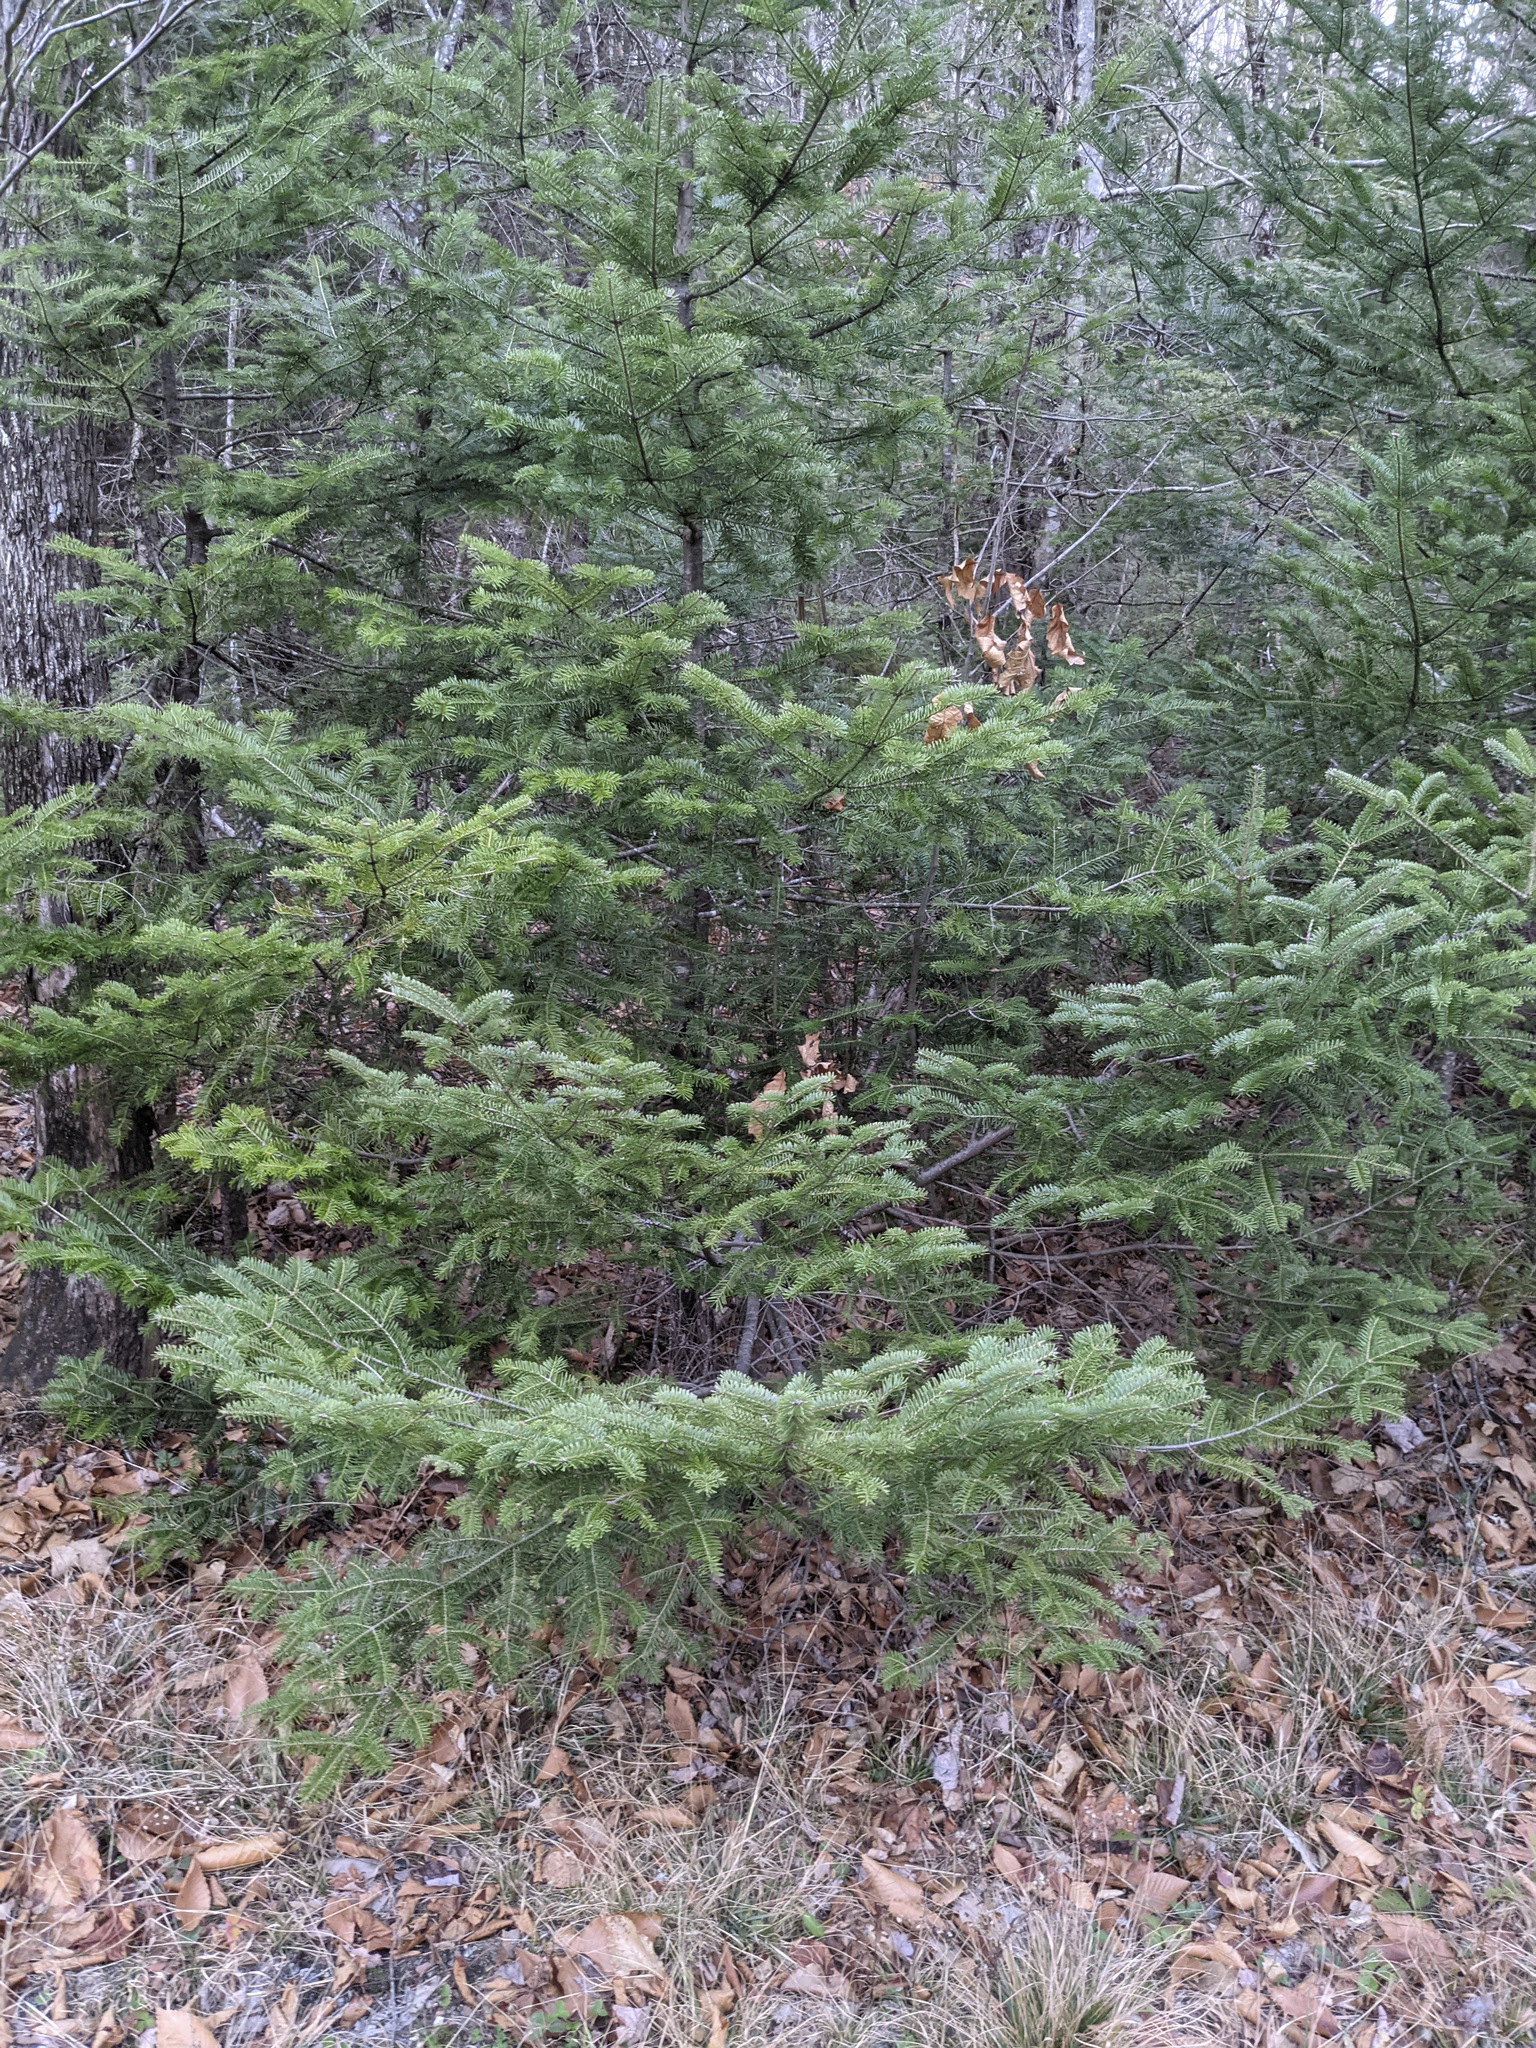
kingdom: Plantae
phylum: Tracheophyta
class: Pinopsida
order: Pinales
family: Pinaceae
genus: Abies
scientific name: Abies balsamea
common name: Balsam fir
